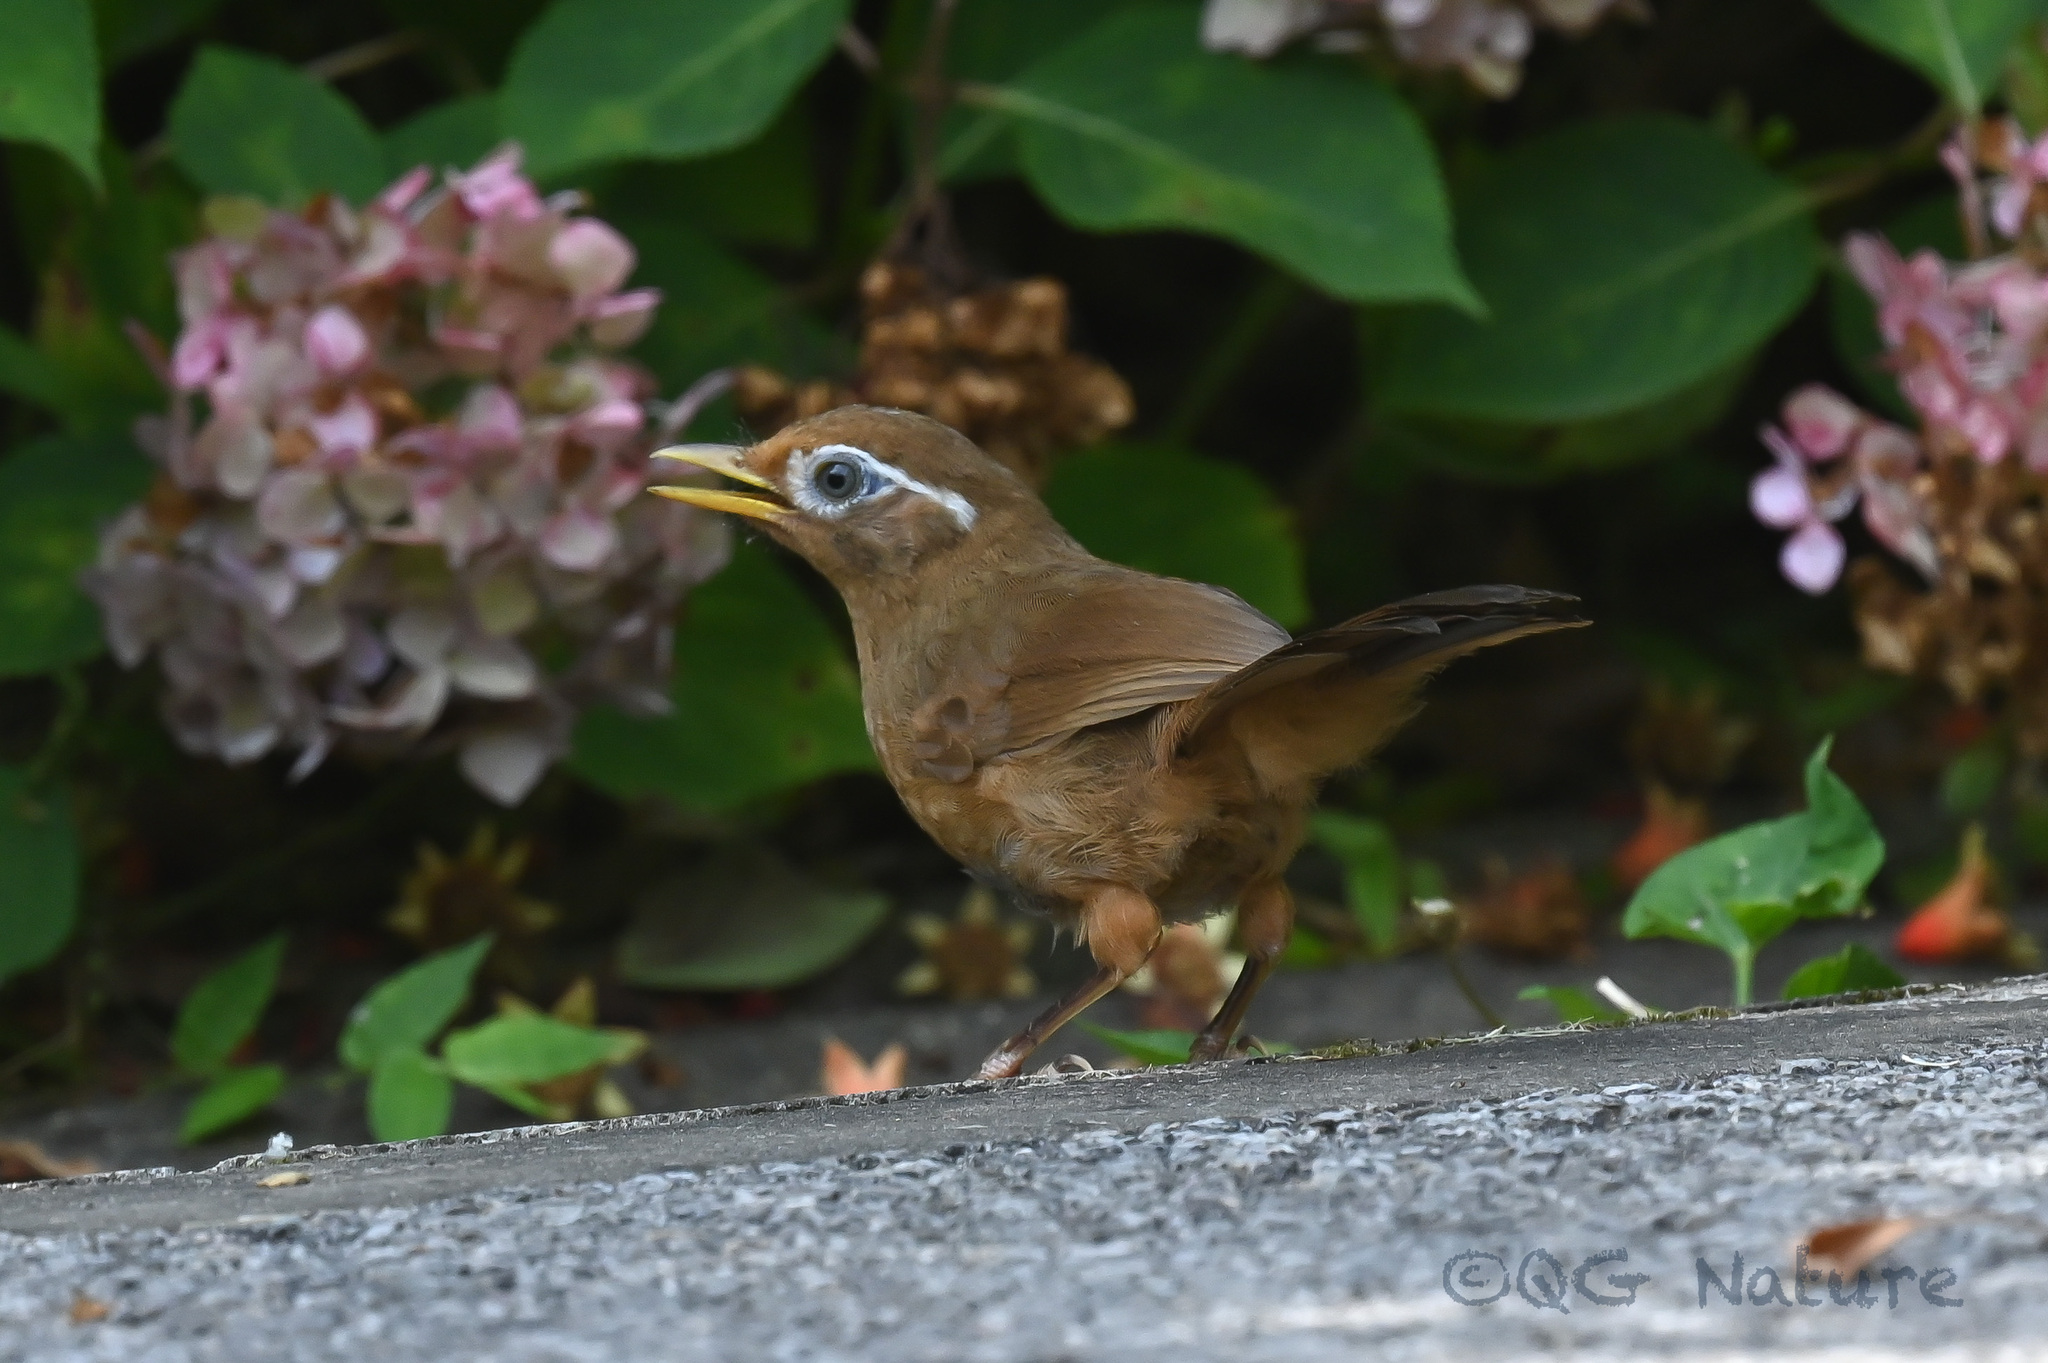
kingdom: Animalia
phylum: Chordata
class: Aves
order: Passeriformes
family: Leiothrichidae
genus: Garrulax
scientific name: Garrulax canorus
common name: Chinese hwamei
